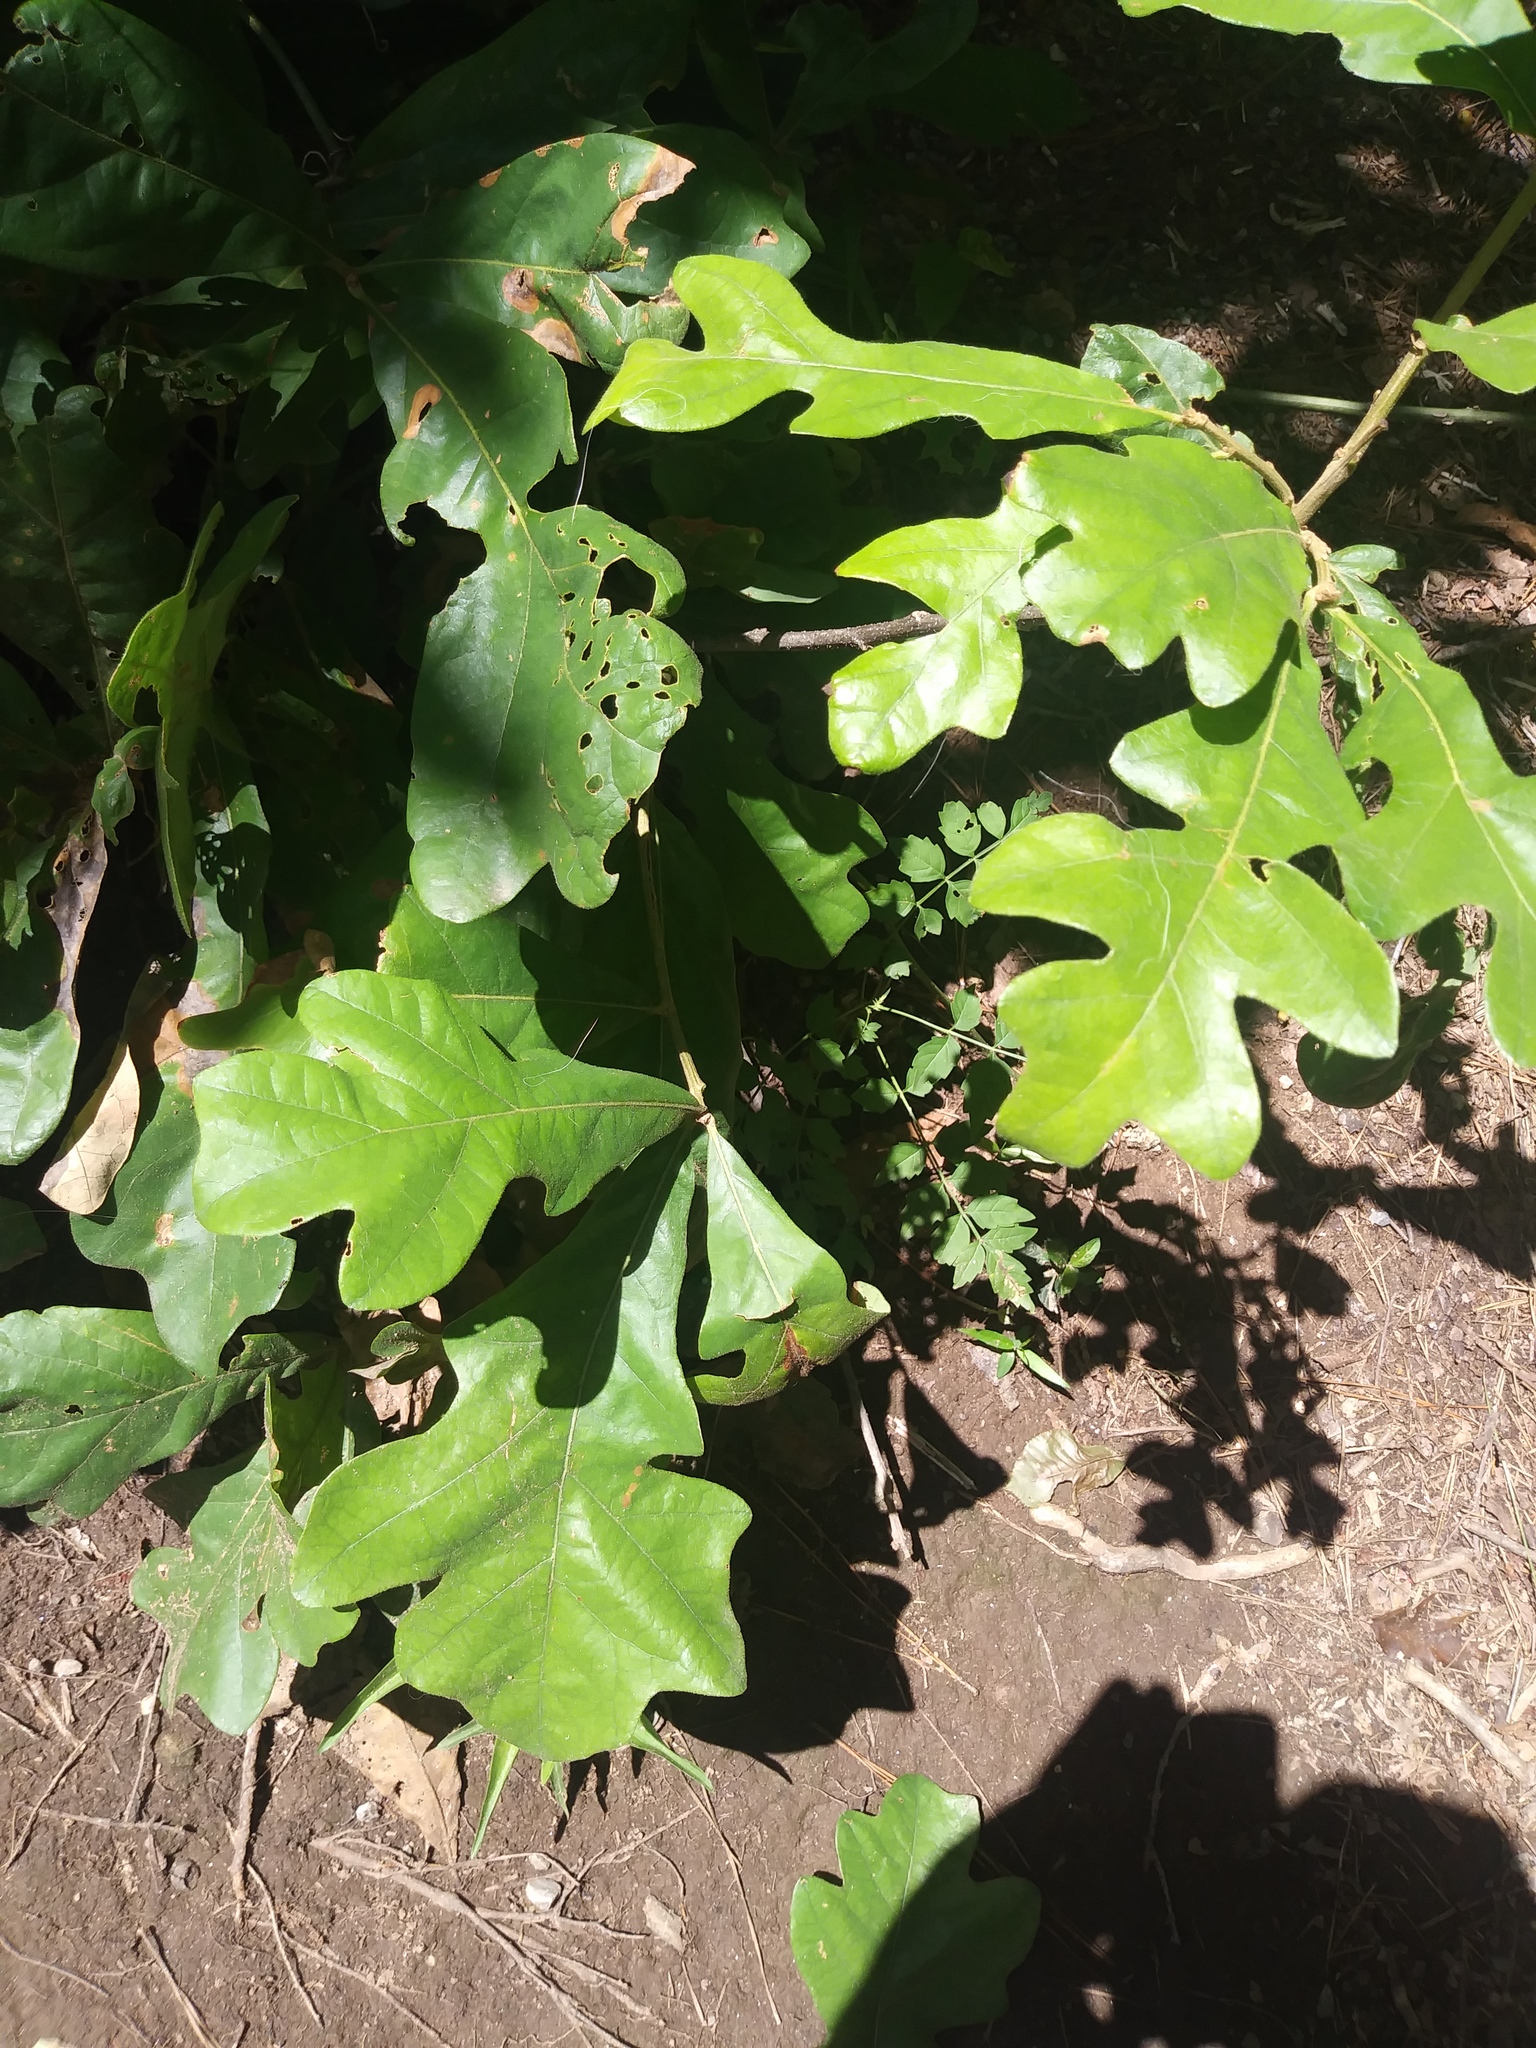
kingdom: Plantae
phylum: Tracheophyta
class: Magnoliopsida
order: Fagales
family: Fagaceae
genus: Quercus
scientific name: Quercus stellata
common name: Post oak
